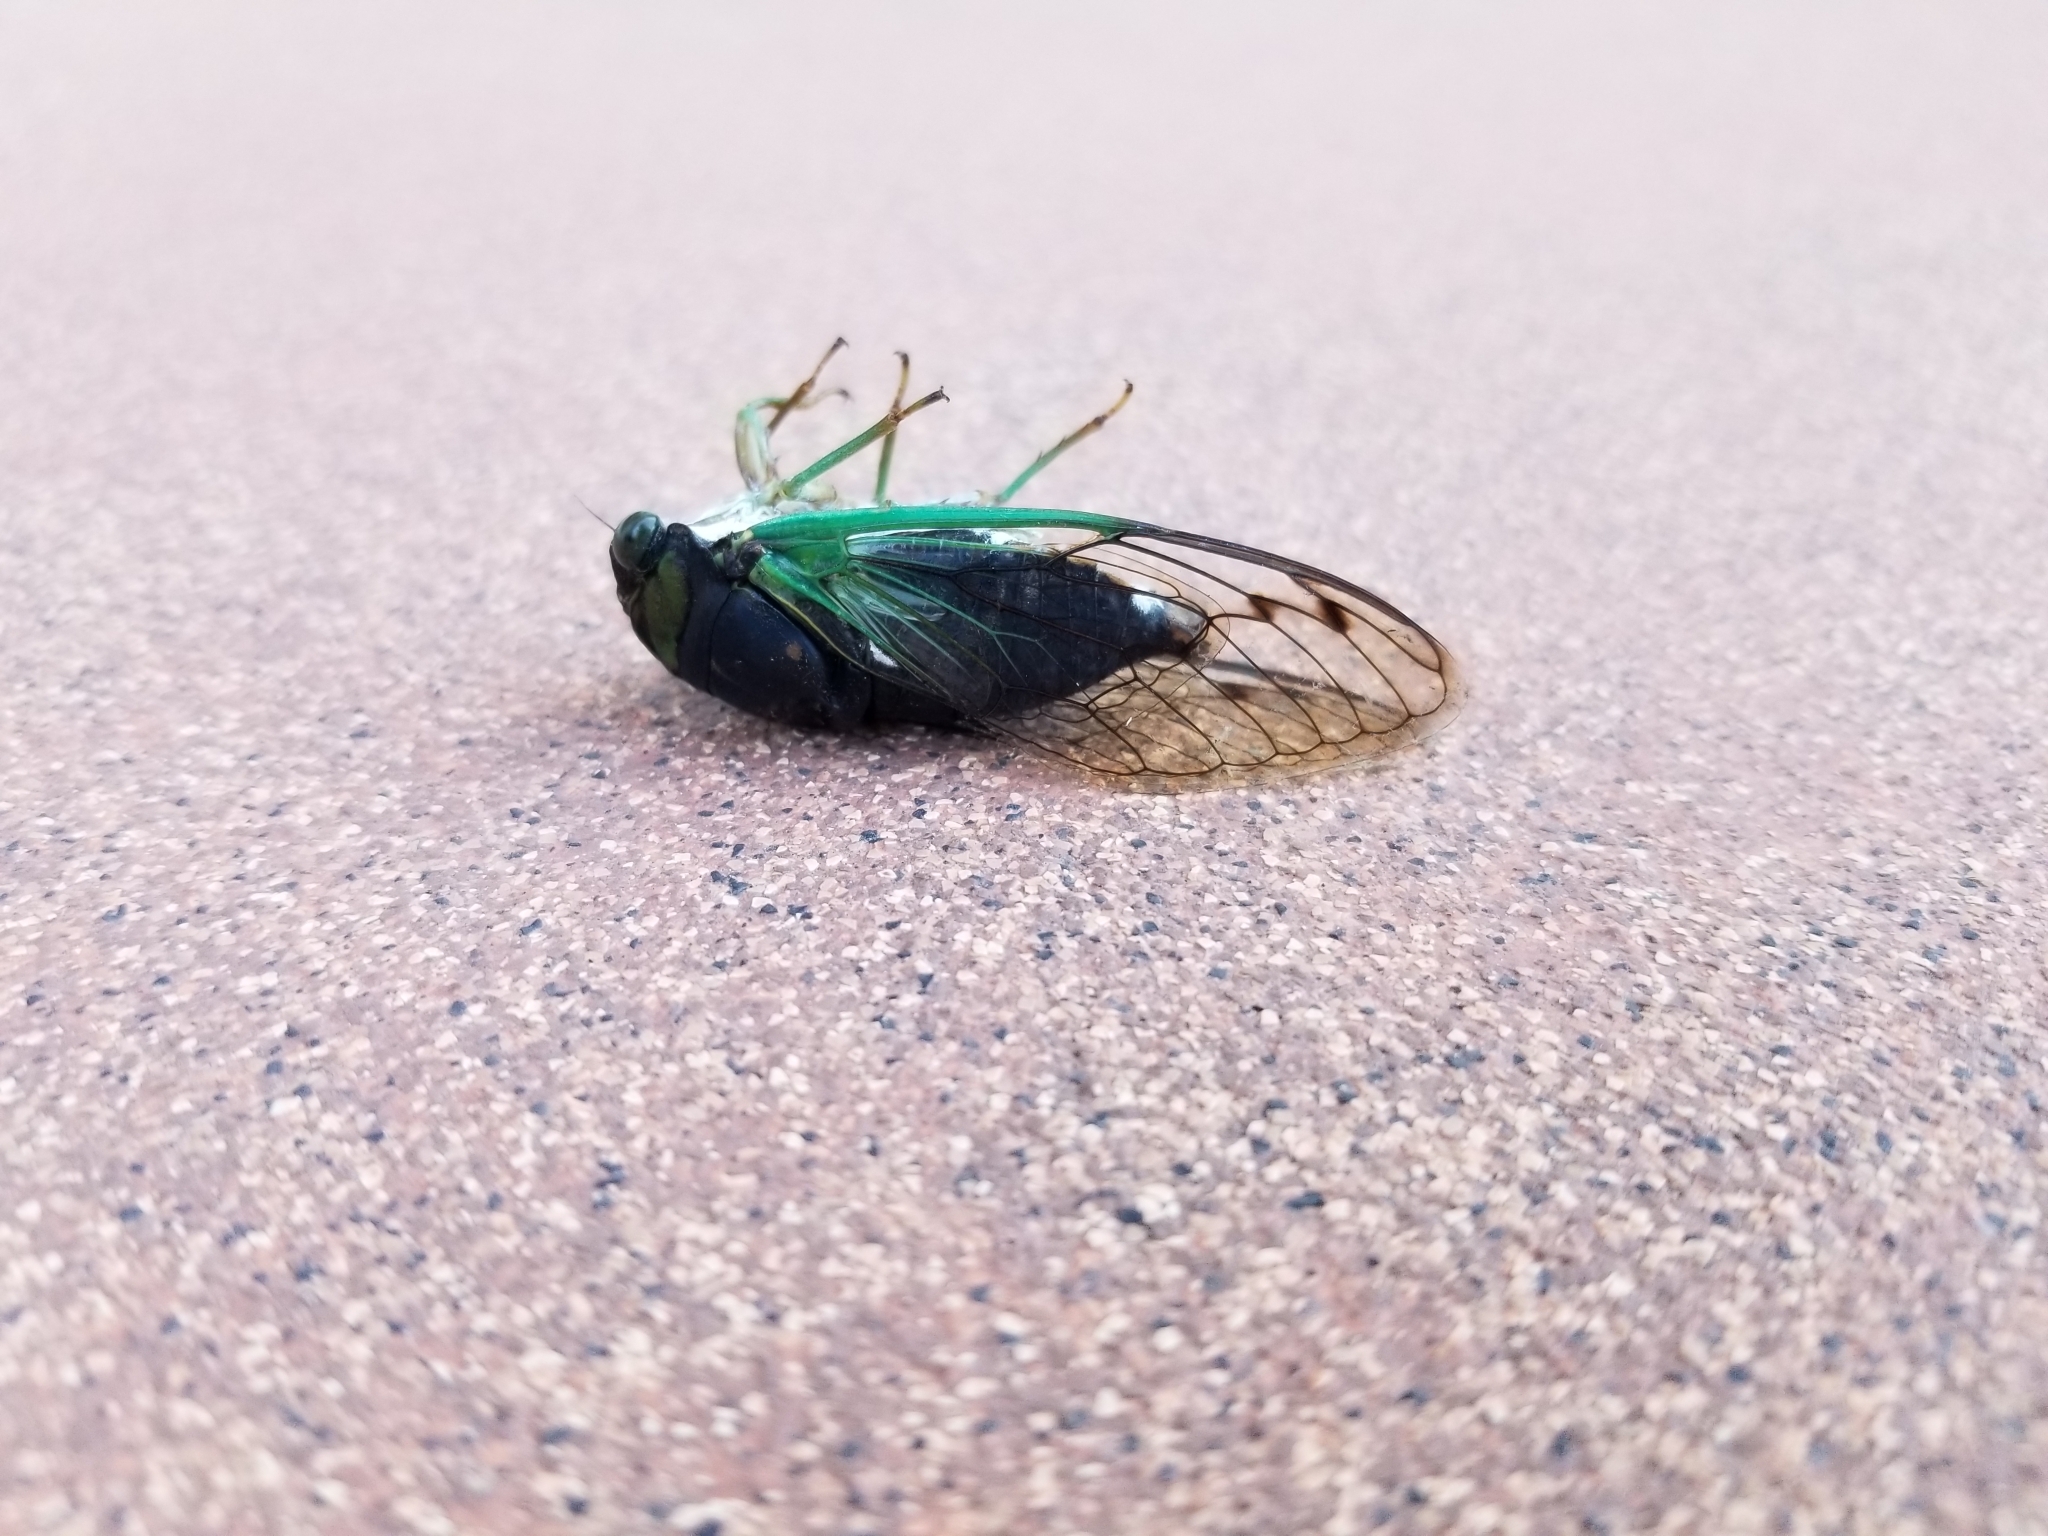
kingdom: Animalia
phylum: Arthropoda
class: Insecta
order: Hemiptera
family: Cicadidae
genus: Neotibicen
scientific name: Neotibicen tibicen
